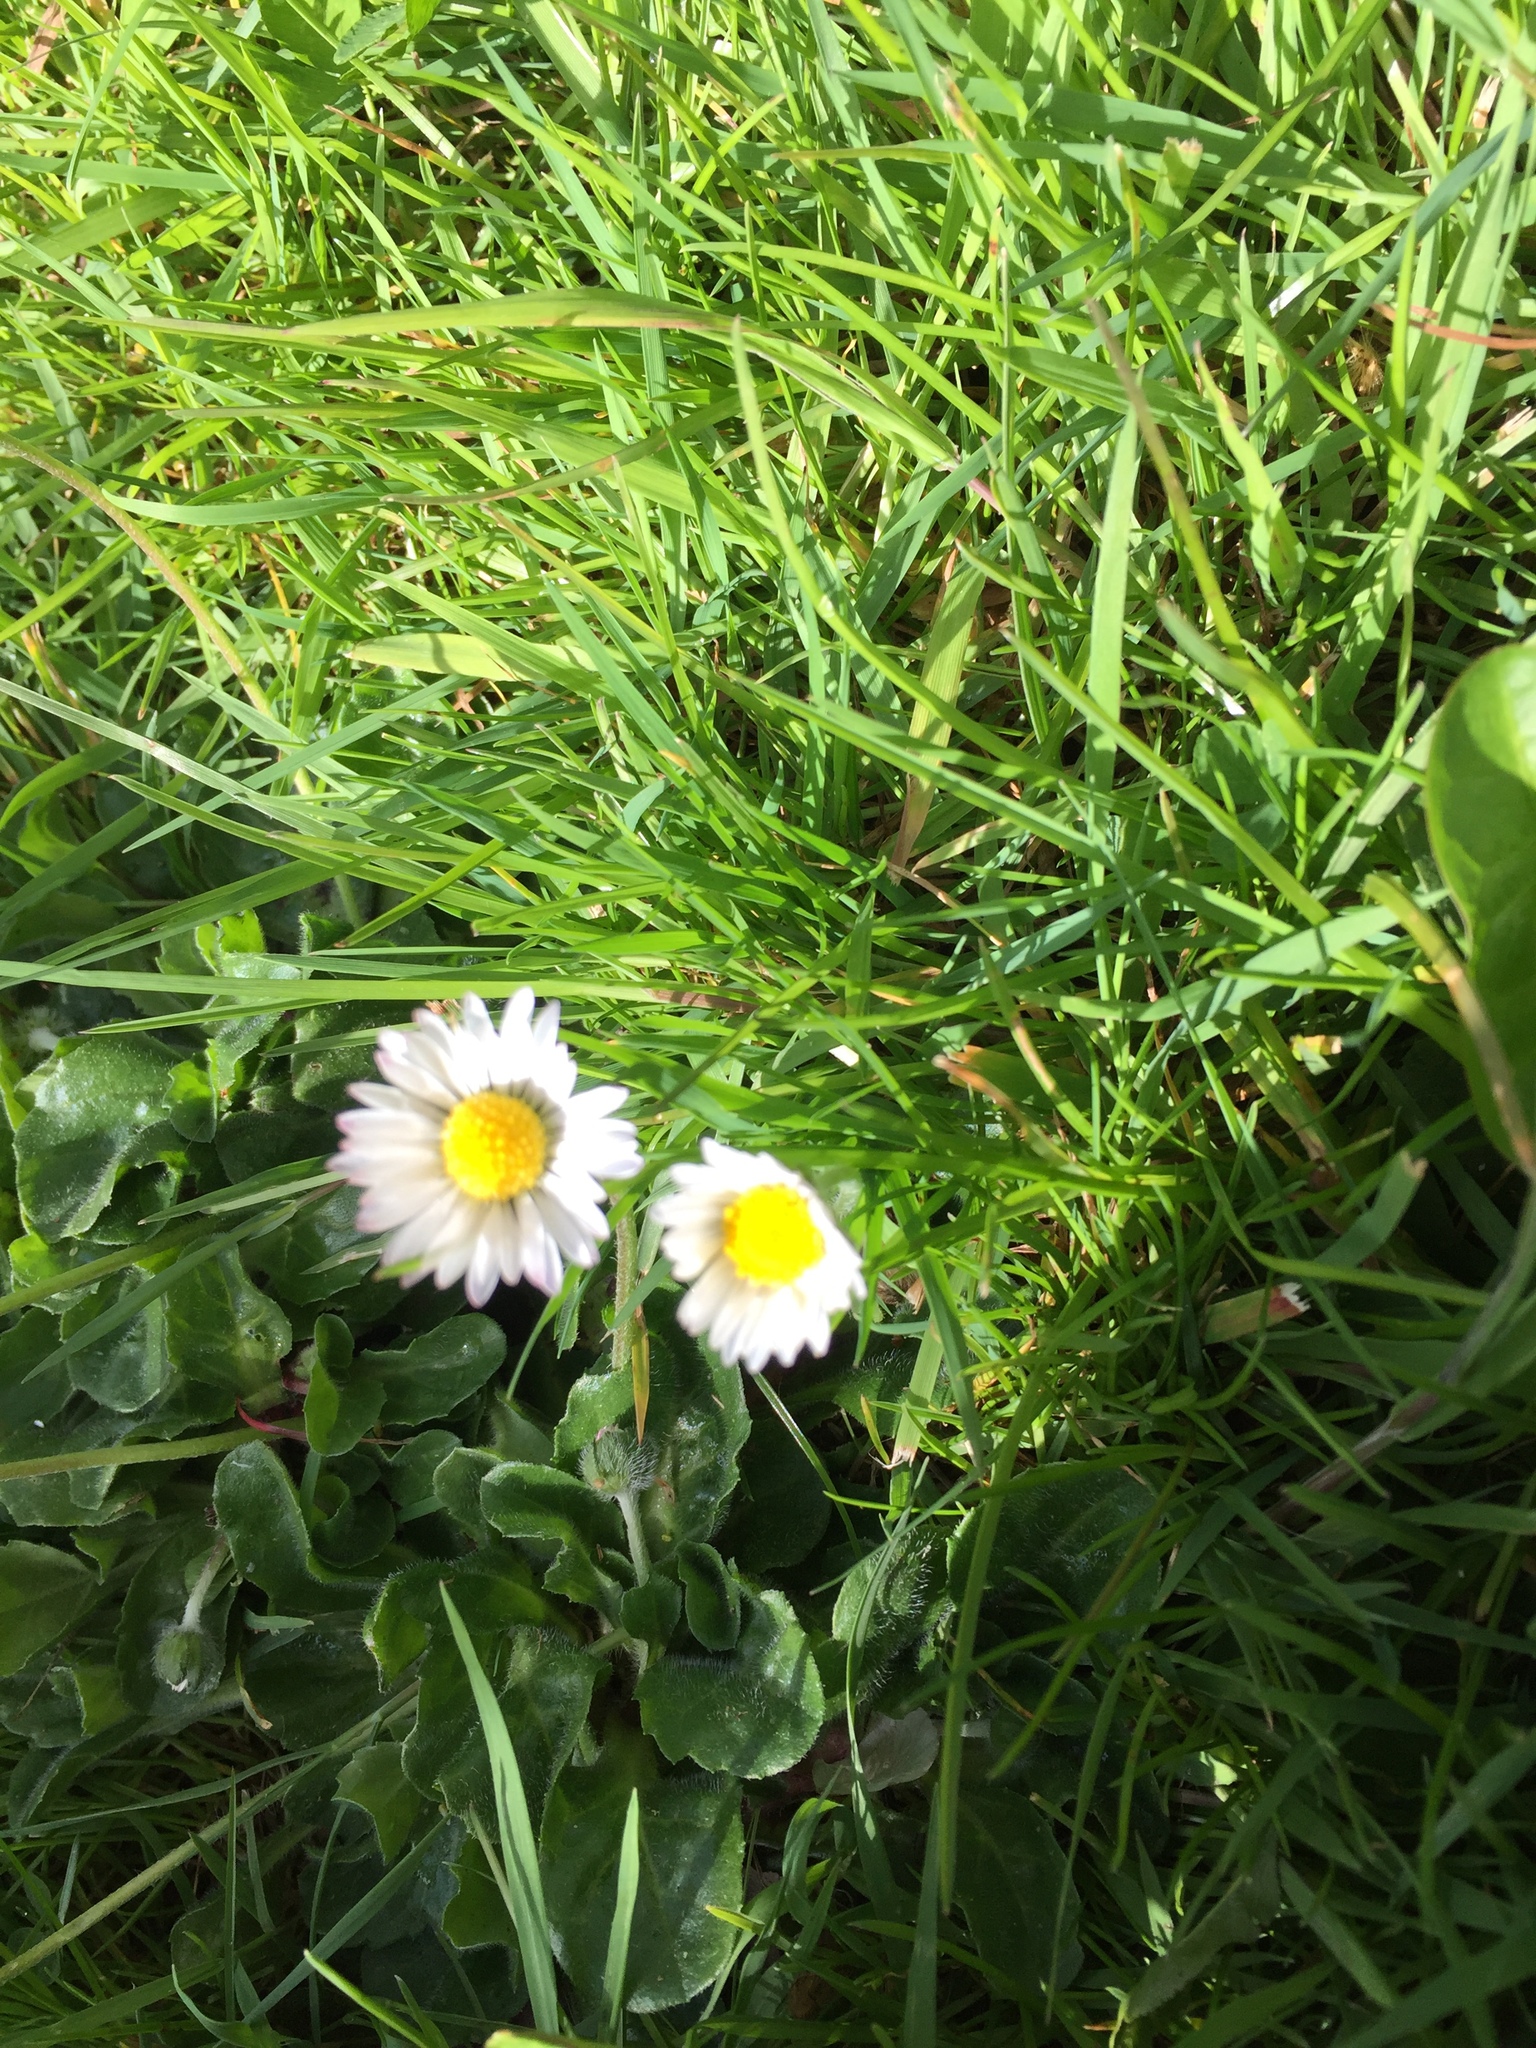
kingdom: Plantae
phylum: Tracheophyta
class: Magnoliopsida
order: Asterales
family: Asteraceae
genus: Bellis
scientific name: Bellis perennis
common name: Lawndaisy
